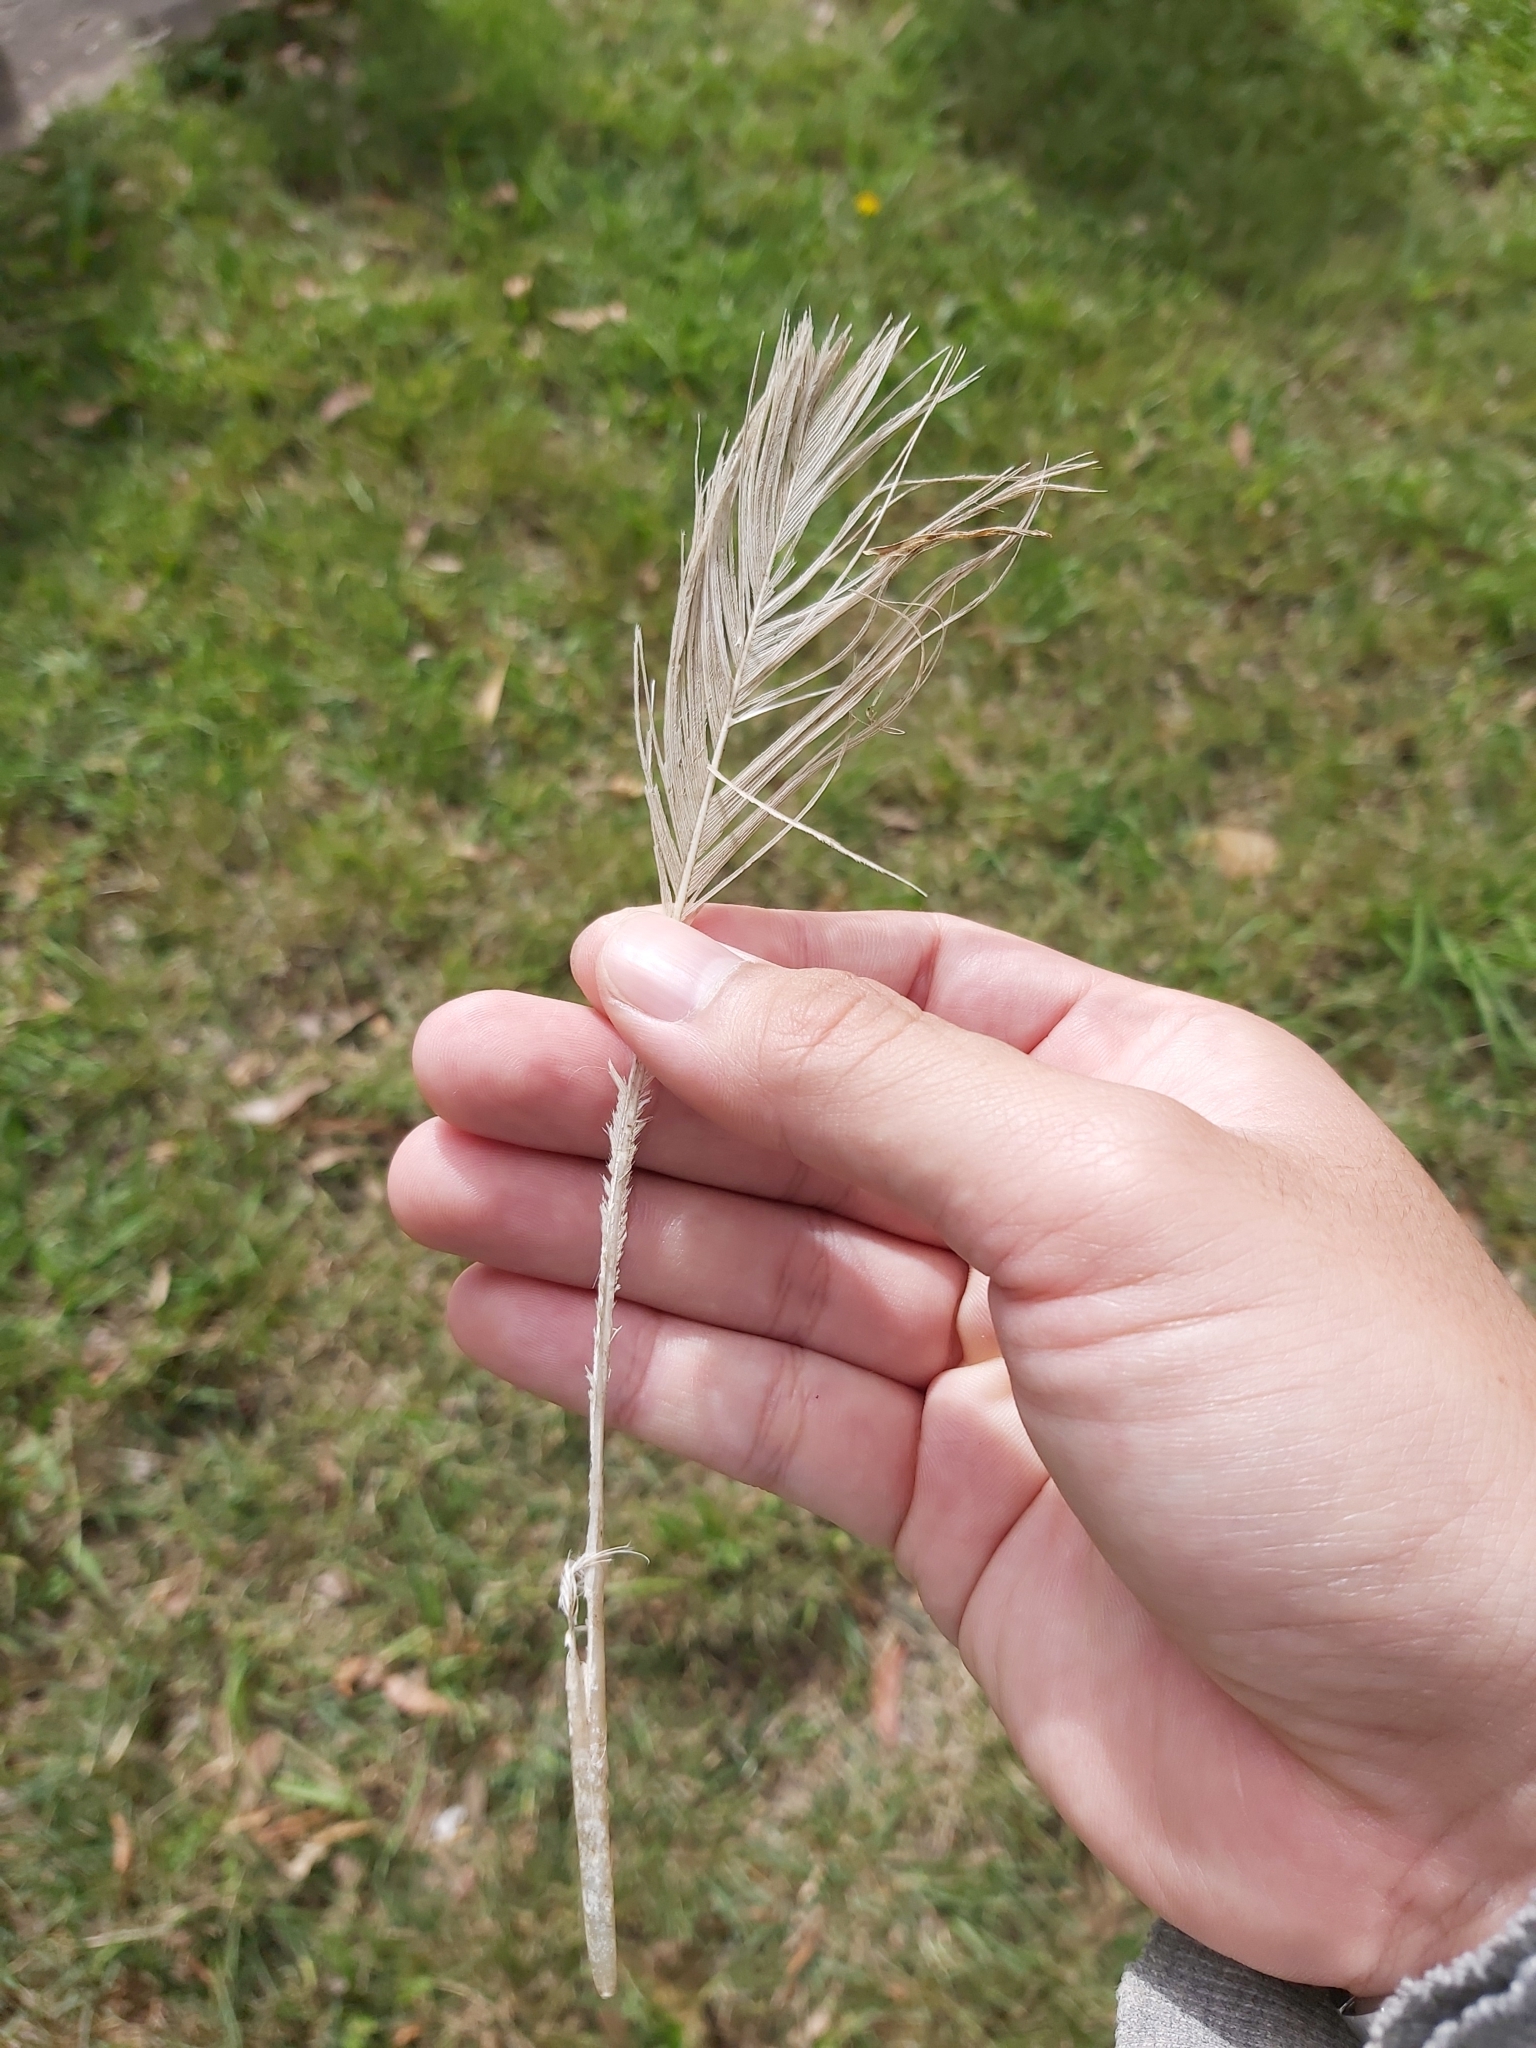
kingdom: Animalia
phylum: Chordata
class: Aves
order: Psittaciformes
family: Psittacidae
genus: Cacatua
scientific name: Cacatua galerita
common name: Sulphur-crested cockatoo
